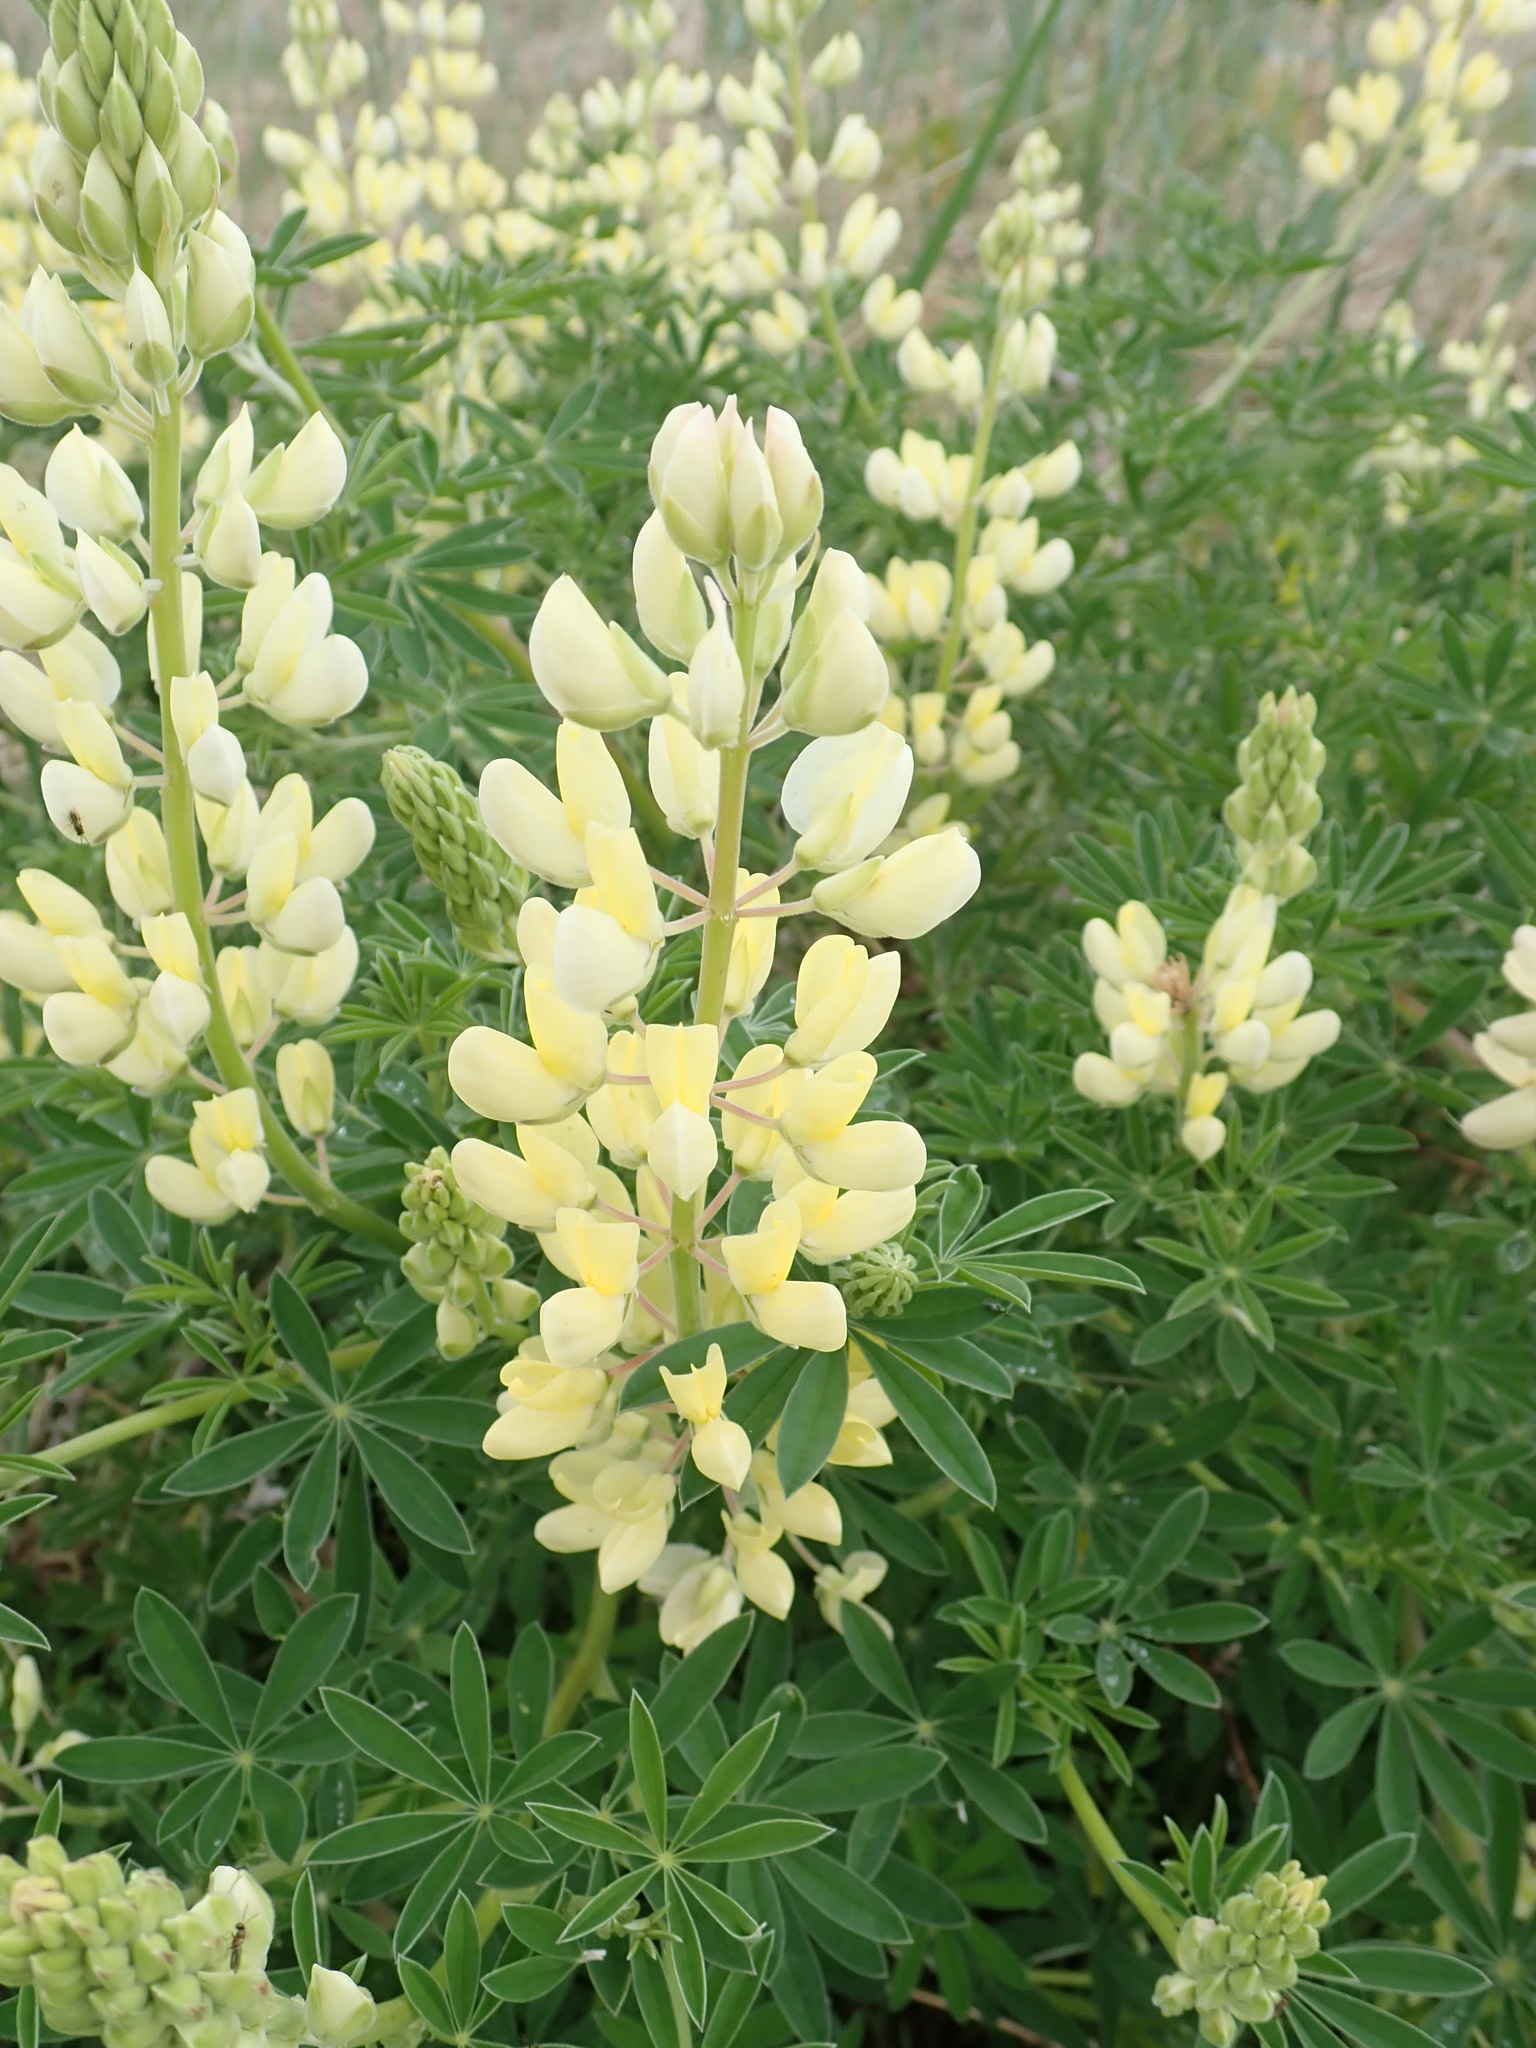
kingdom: Plantae
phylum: Tracheophyta
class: Magnoliopsida
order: Fabales
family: Fabaceae
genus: Lupinus
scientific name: Lupinus arboreus
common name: Yellow bush lupine
